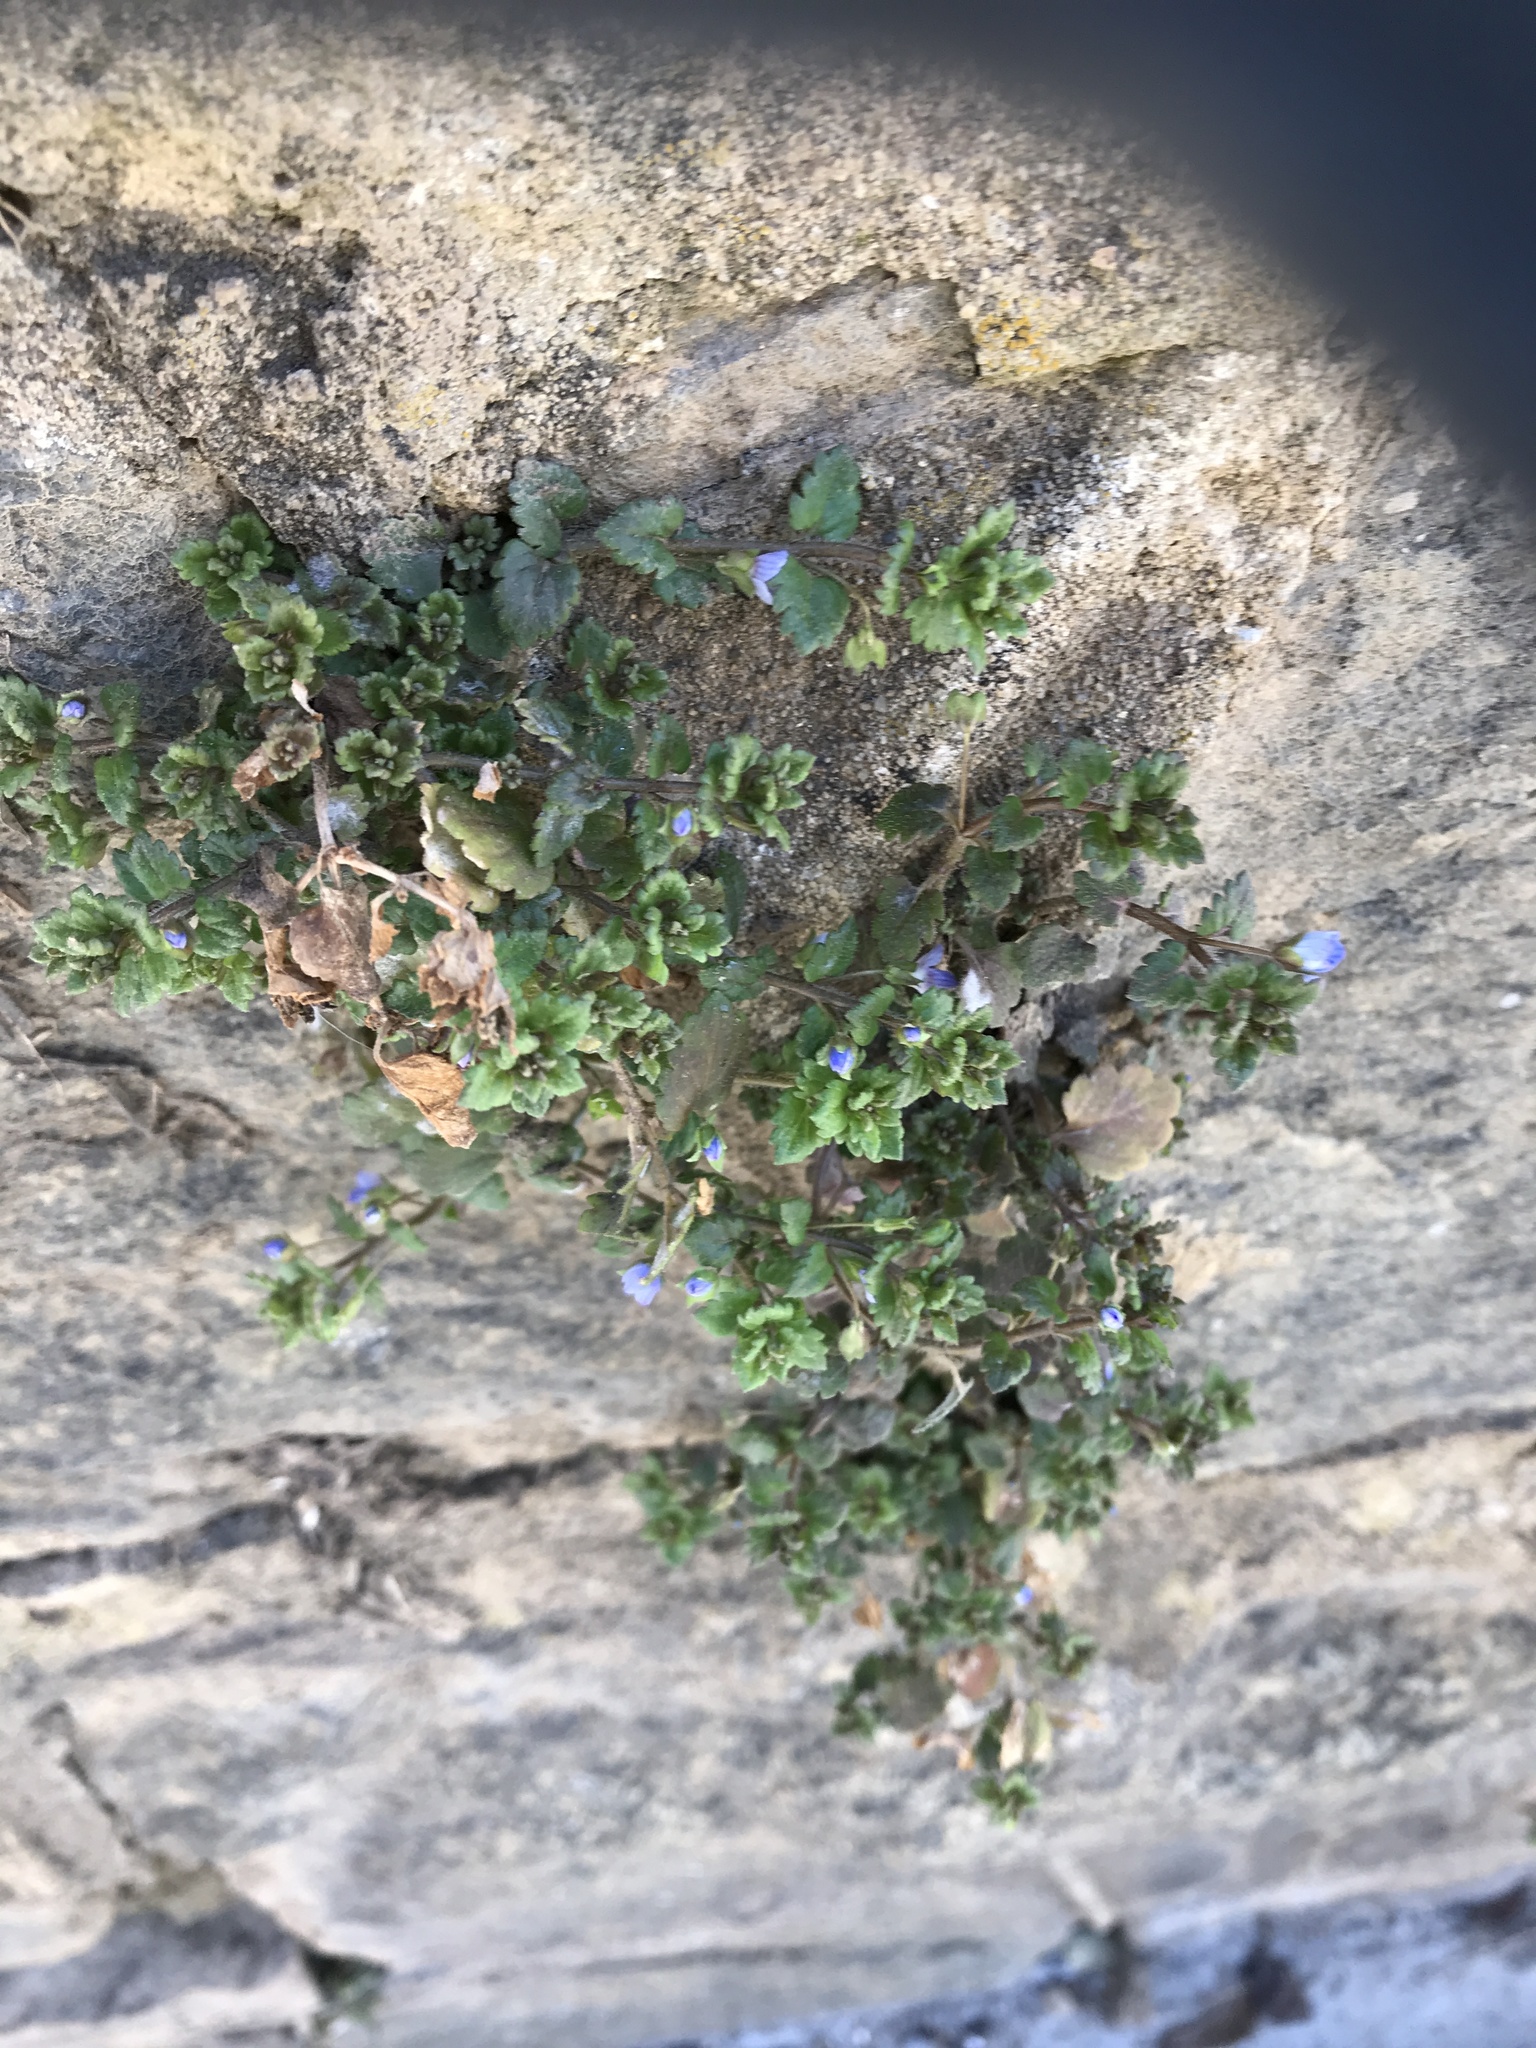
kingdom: Plantae
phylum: Tracheophyta
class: Magnoliopsida
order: Lamiales
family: Plantaginaceae
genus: Veronica
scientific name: Veronica polita
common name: Grey field-speedwell
